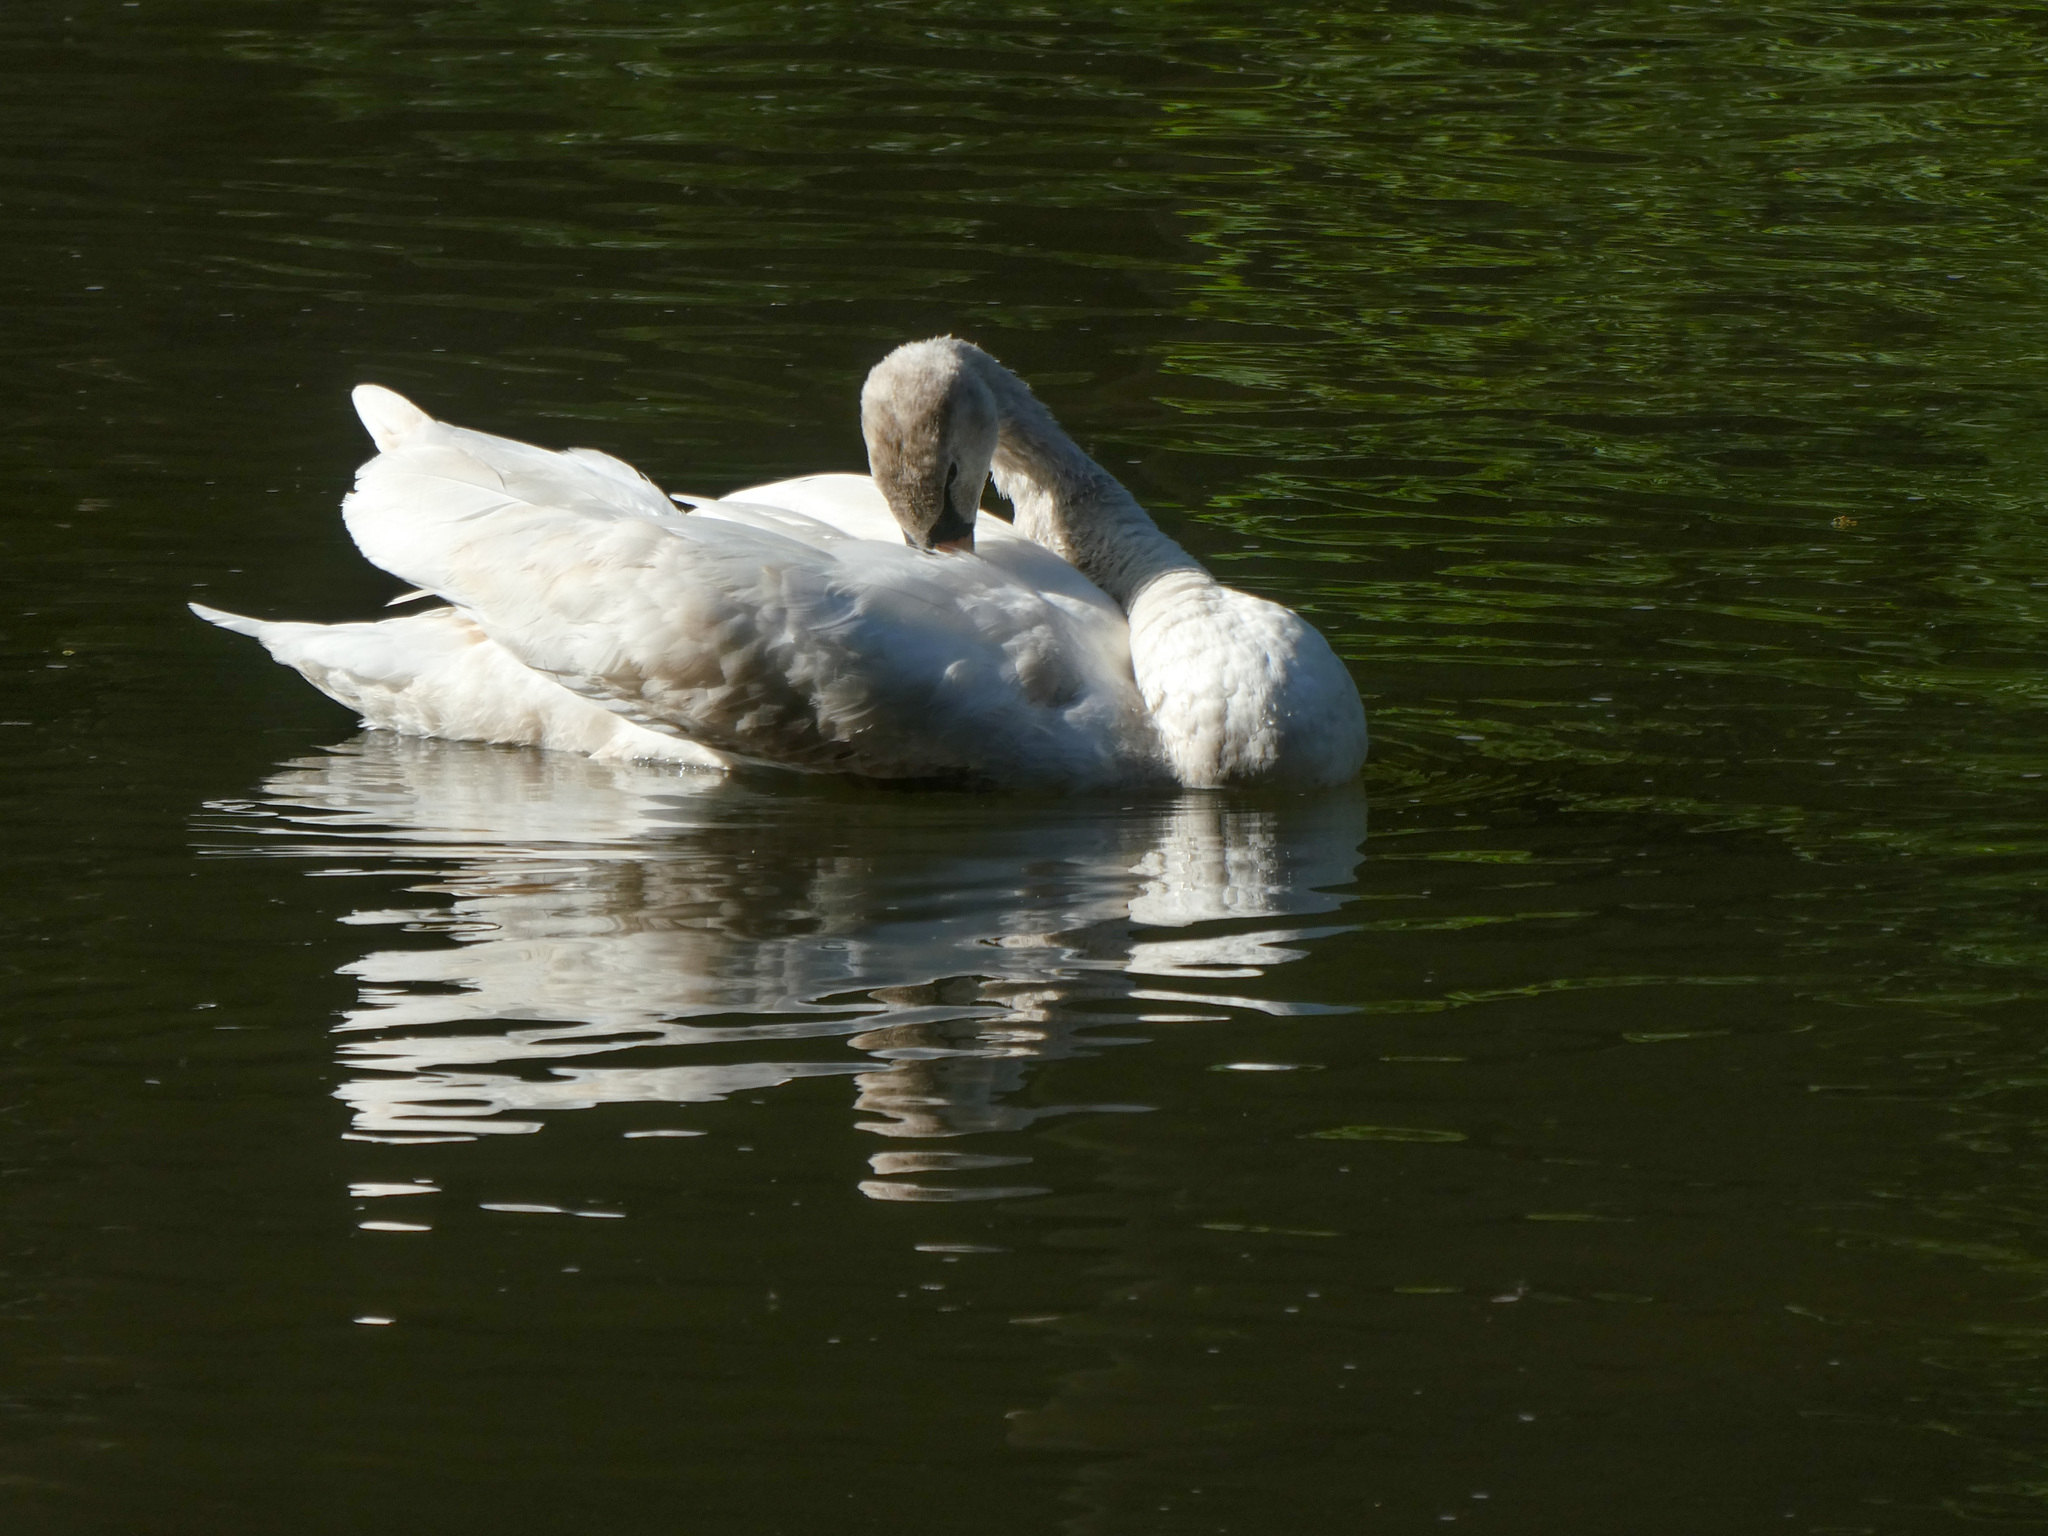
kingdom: Animalia
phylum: Chordata
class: Aves
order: Anseriformes
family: Anatidae
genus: Cygnus
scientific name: Cygnus olor
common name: Mute swan
